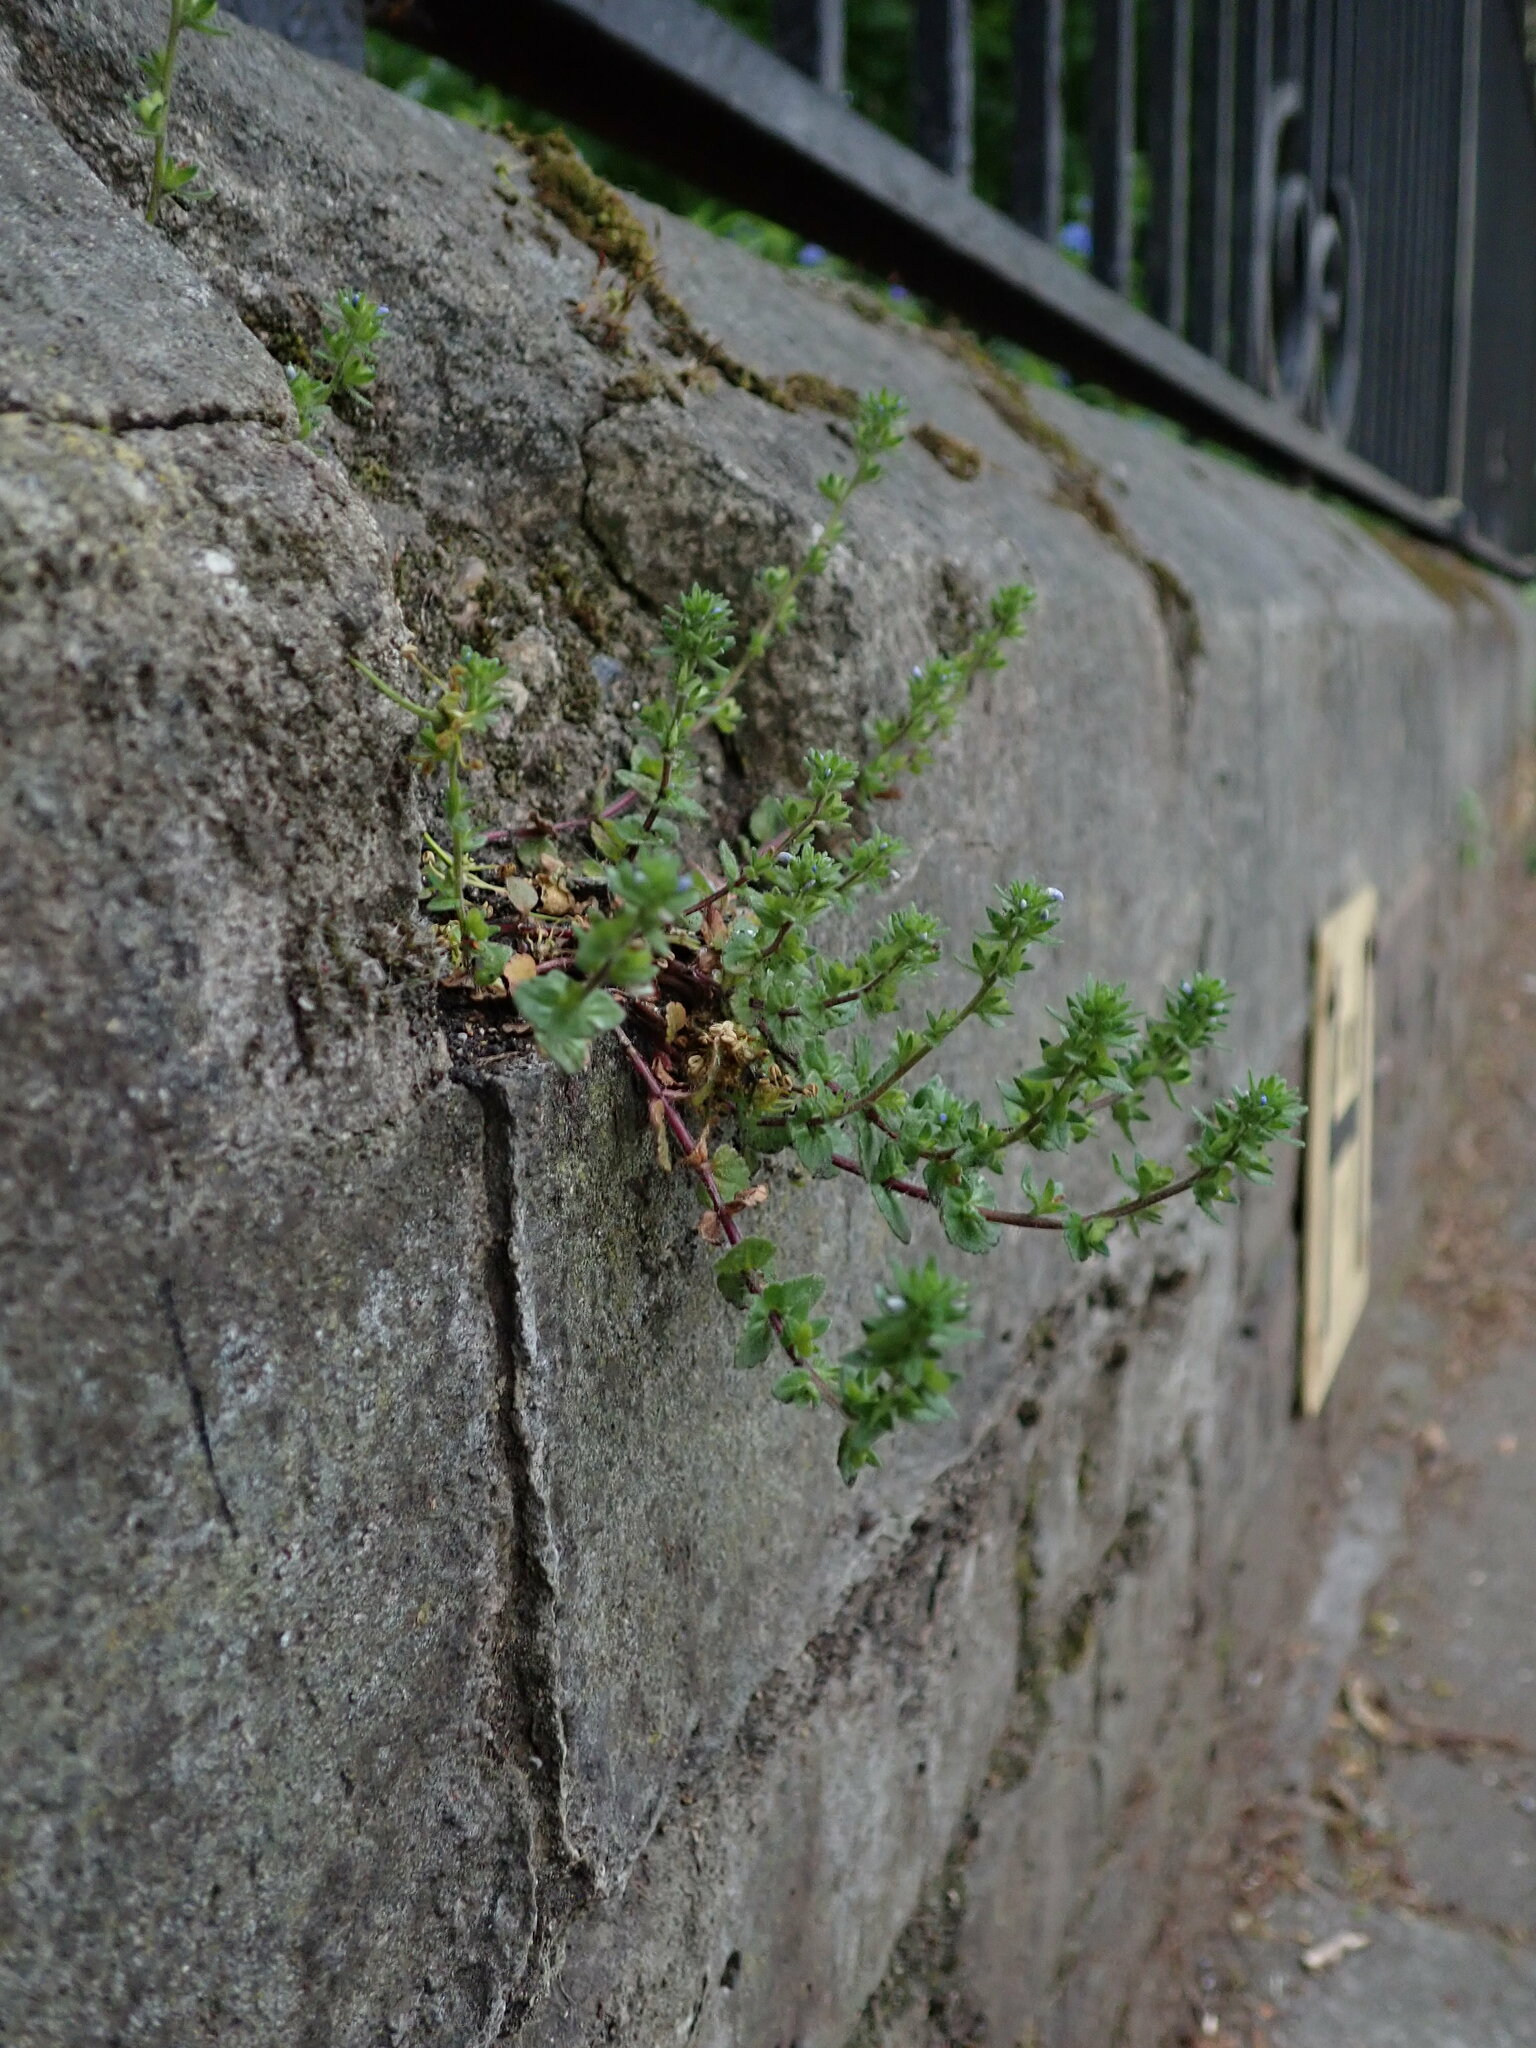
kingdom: Plantae
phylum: Tracheophyta
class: Magnoliopsida
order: Lamiales
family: Plantaginaceae
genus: Veronica
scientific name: Veronica arvensis
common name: Corn speedwell
